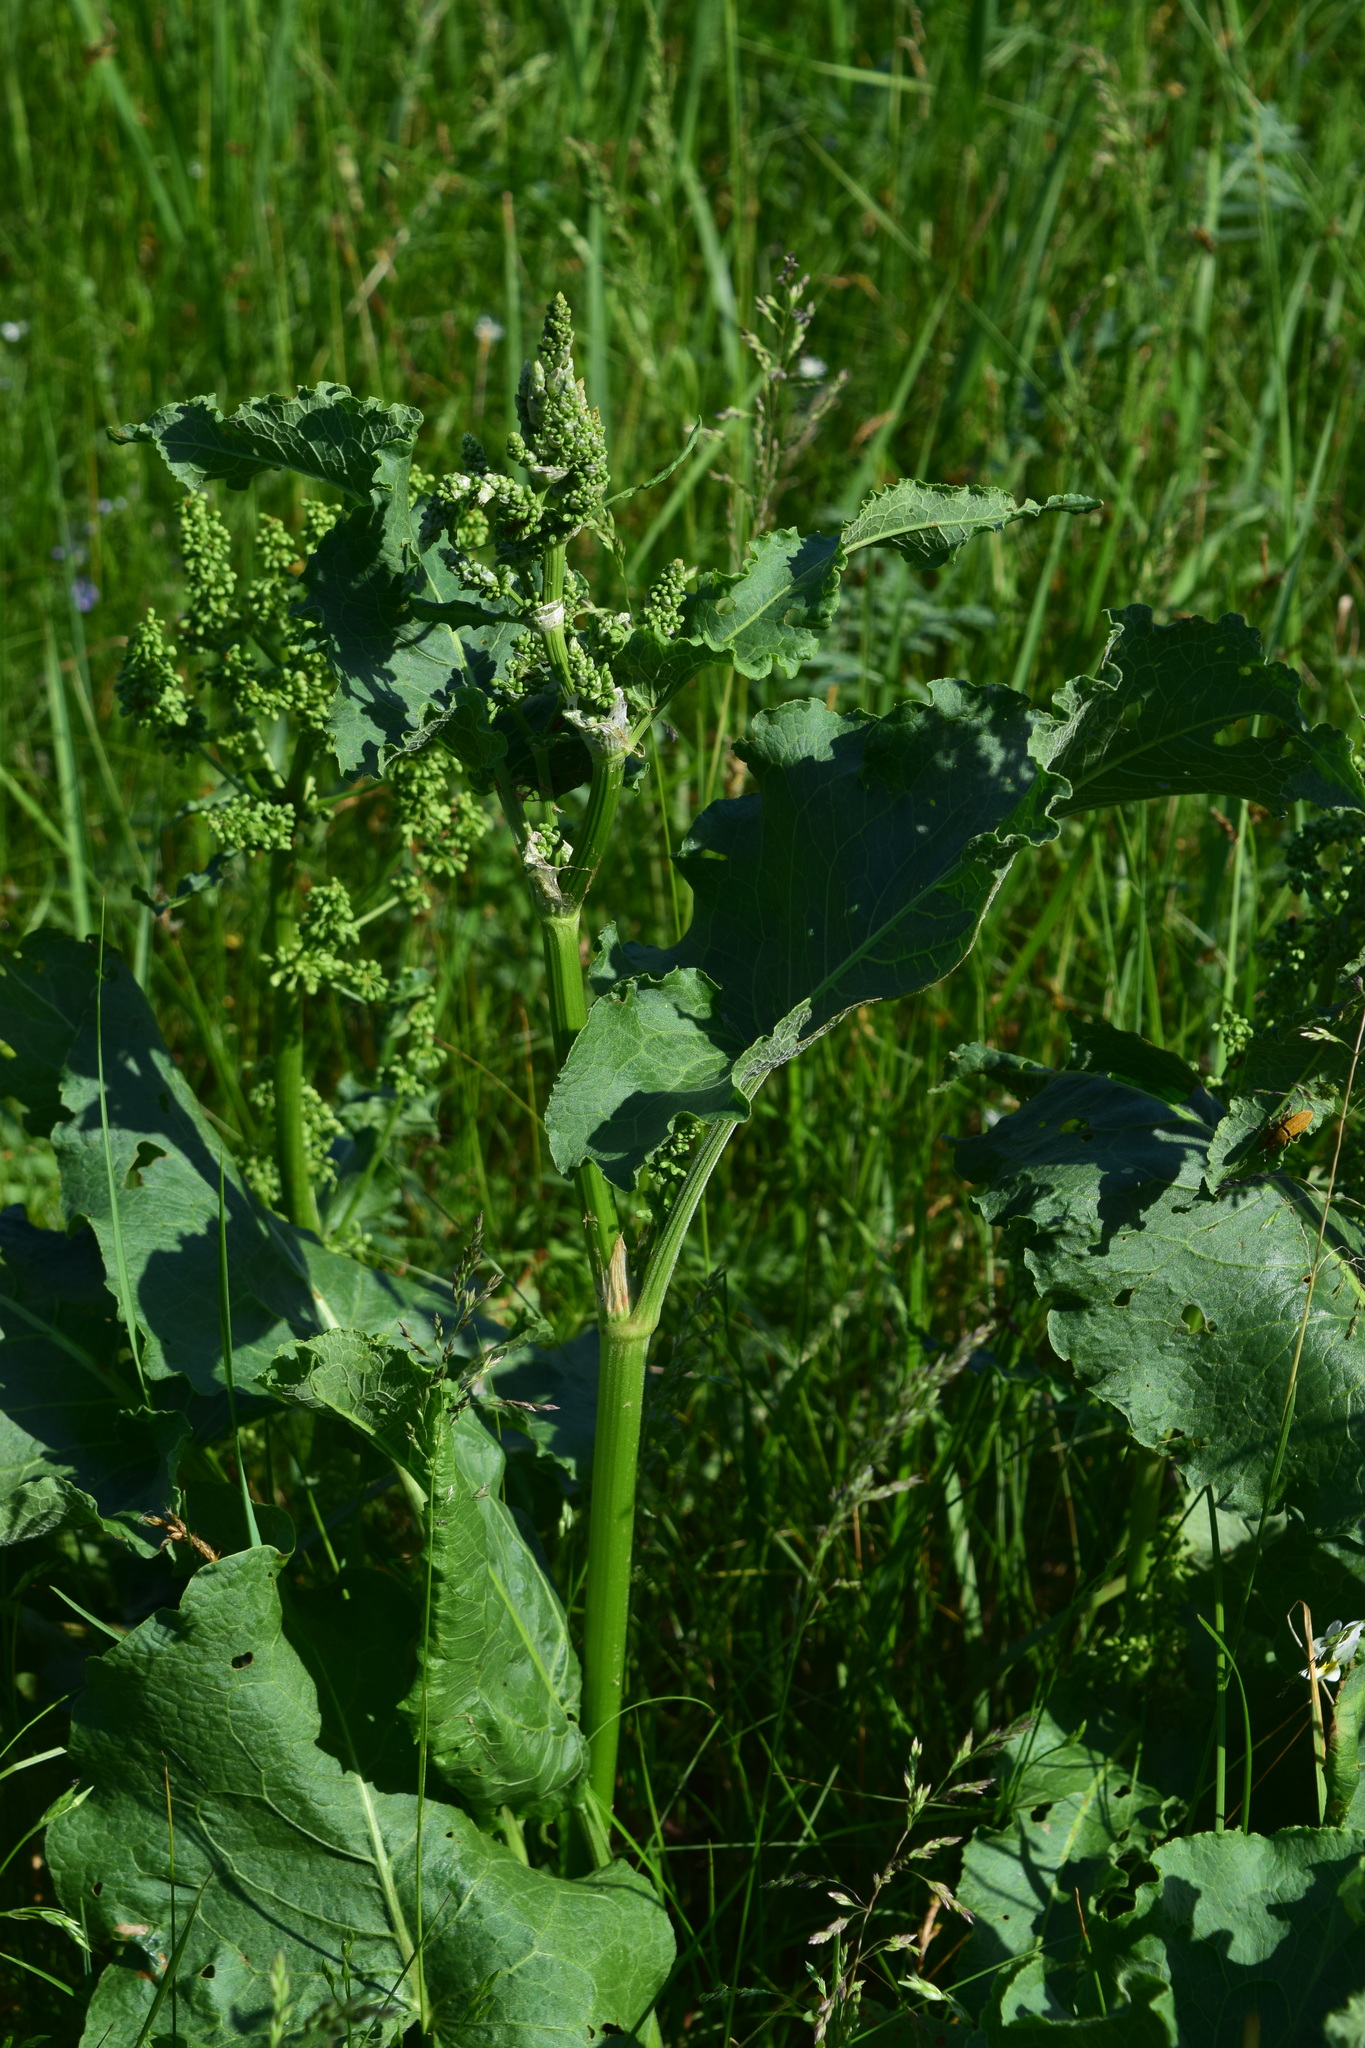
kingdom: Plantae
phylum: Tracheophyta
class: Magnoliopsida
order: Caryophyllales
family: Polygonaceae
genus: Rumex
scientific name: Rumex confertus
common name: Russian dock
